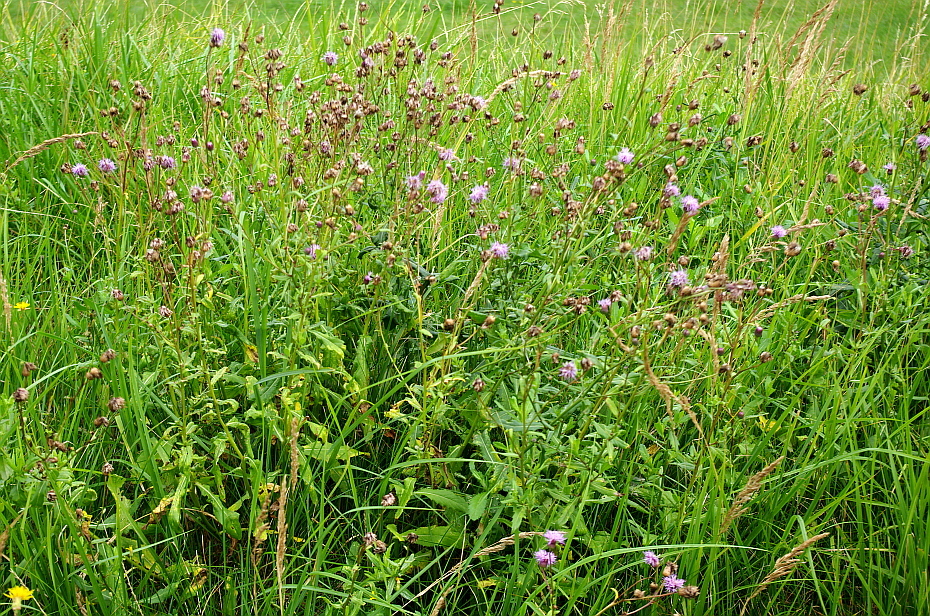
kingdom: Plantae
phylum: Tracheophyta
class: Magnoliopsida
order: Asterales
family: Asteraceae
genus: Cirsium
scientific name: Cirsium arvense
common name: Creeping thistle
